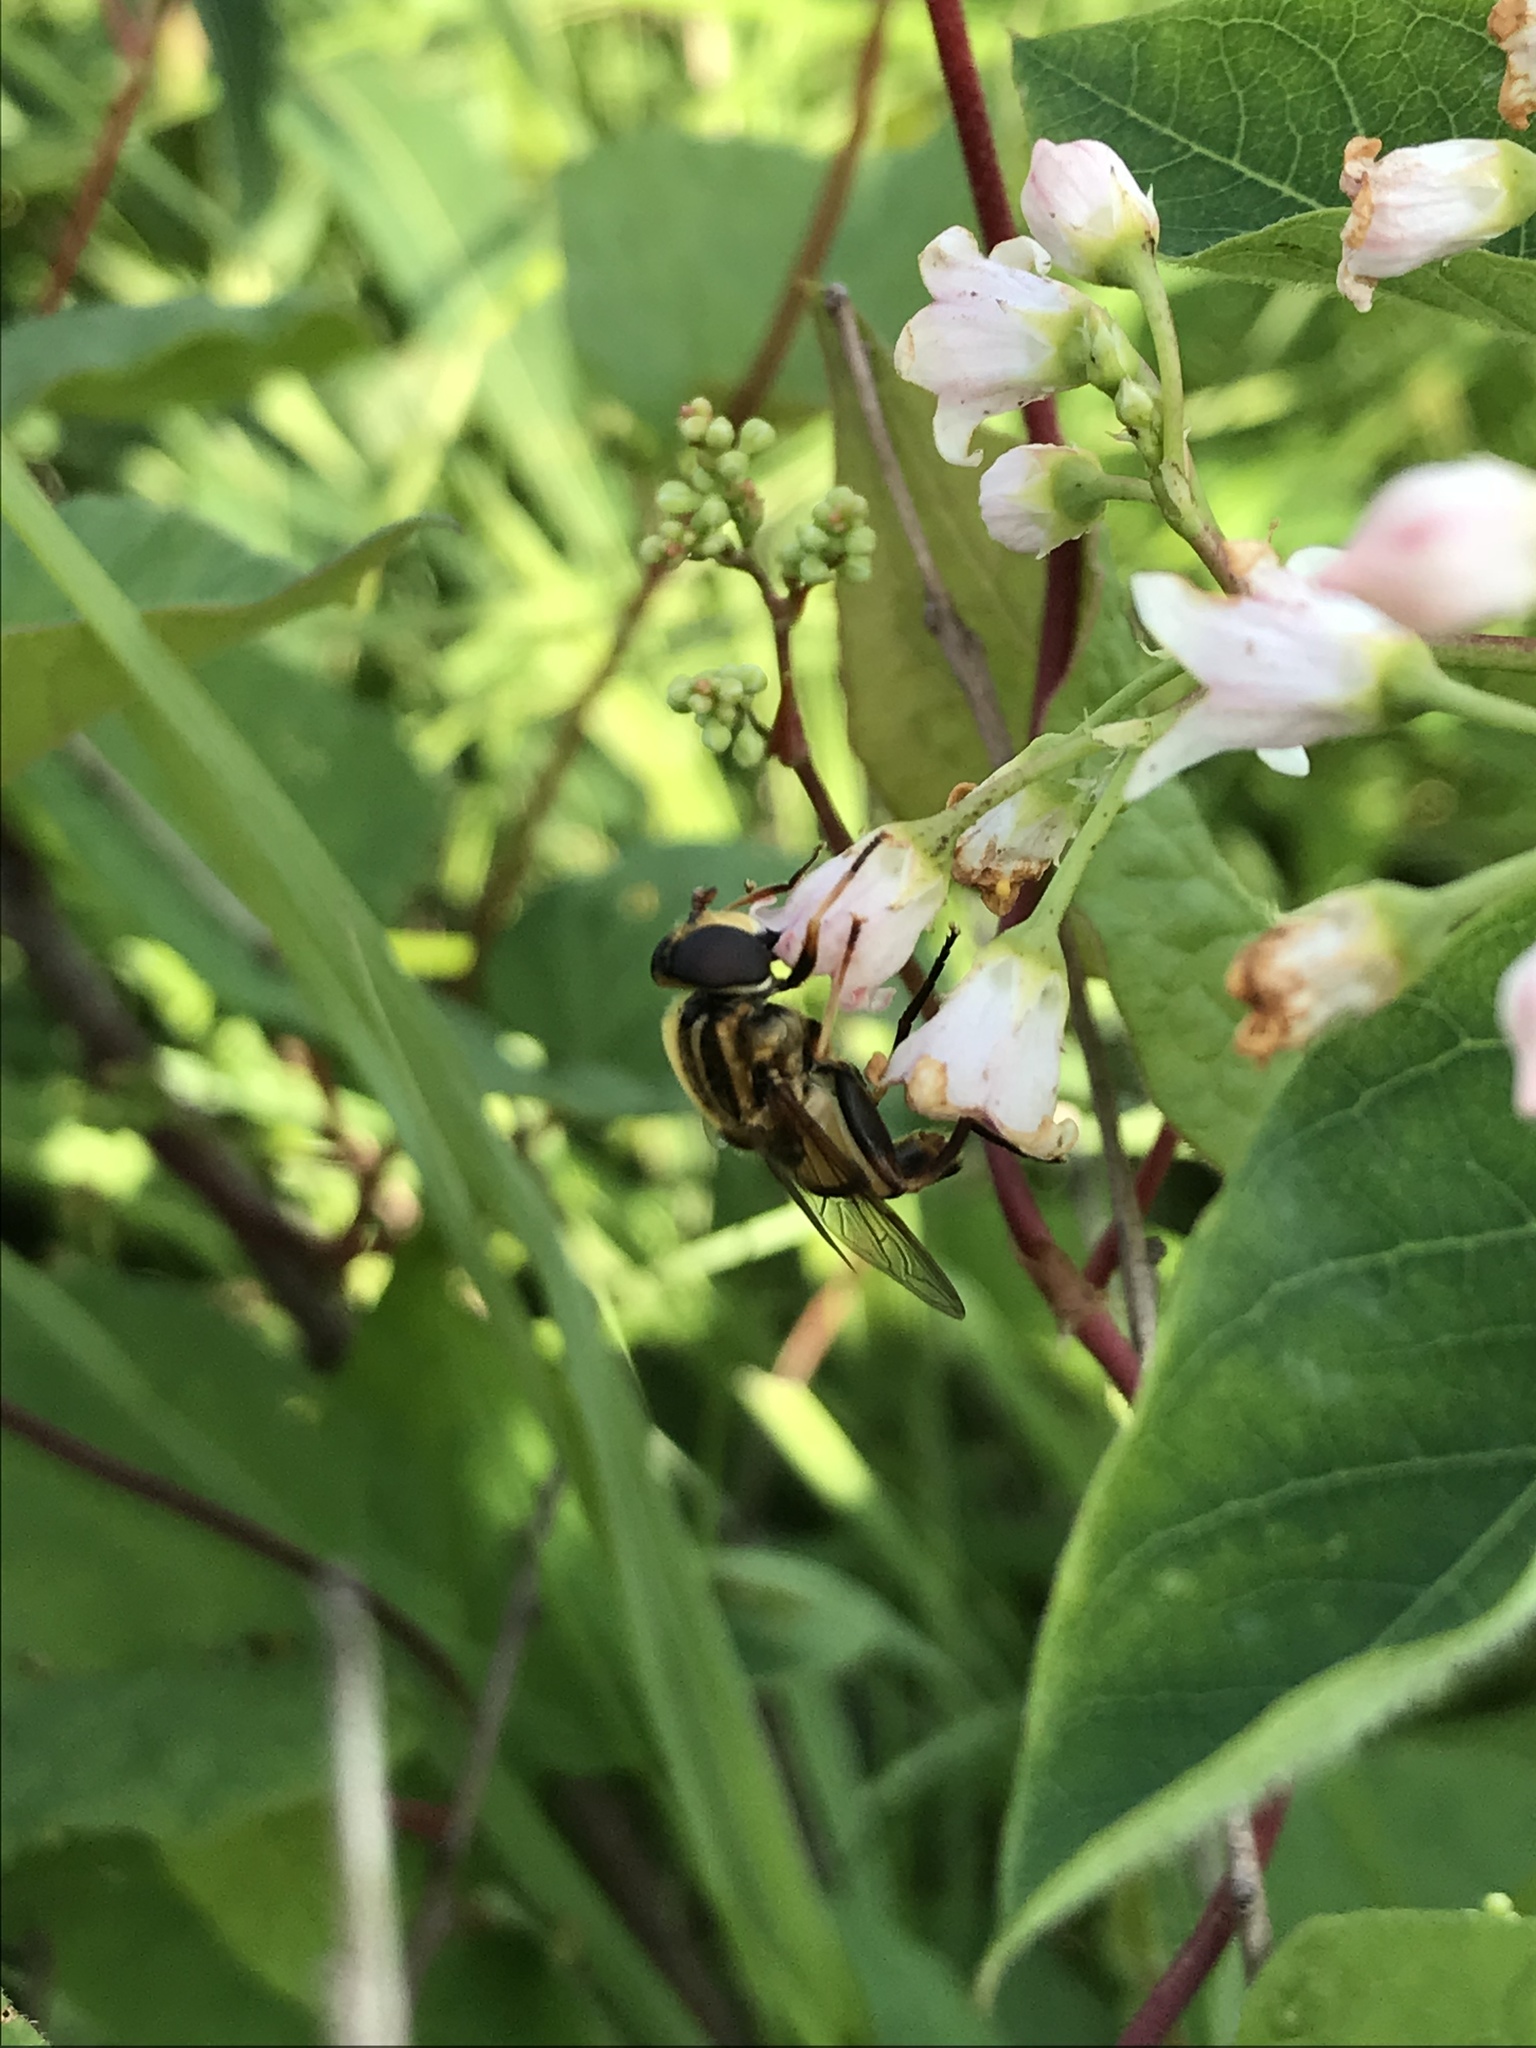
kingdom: Animalia
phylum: Arthropoda
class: Insecta
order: Diptera
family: Syrphidae
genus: Helophilus
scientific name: Helophilus fasciatus
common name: Narrow-headed marsh fly
